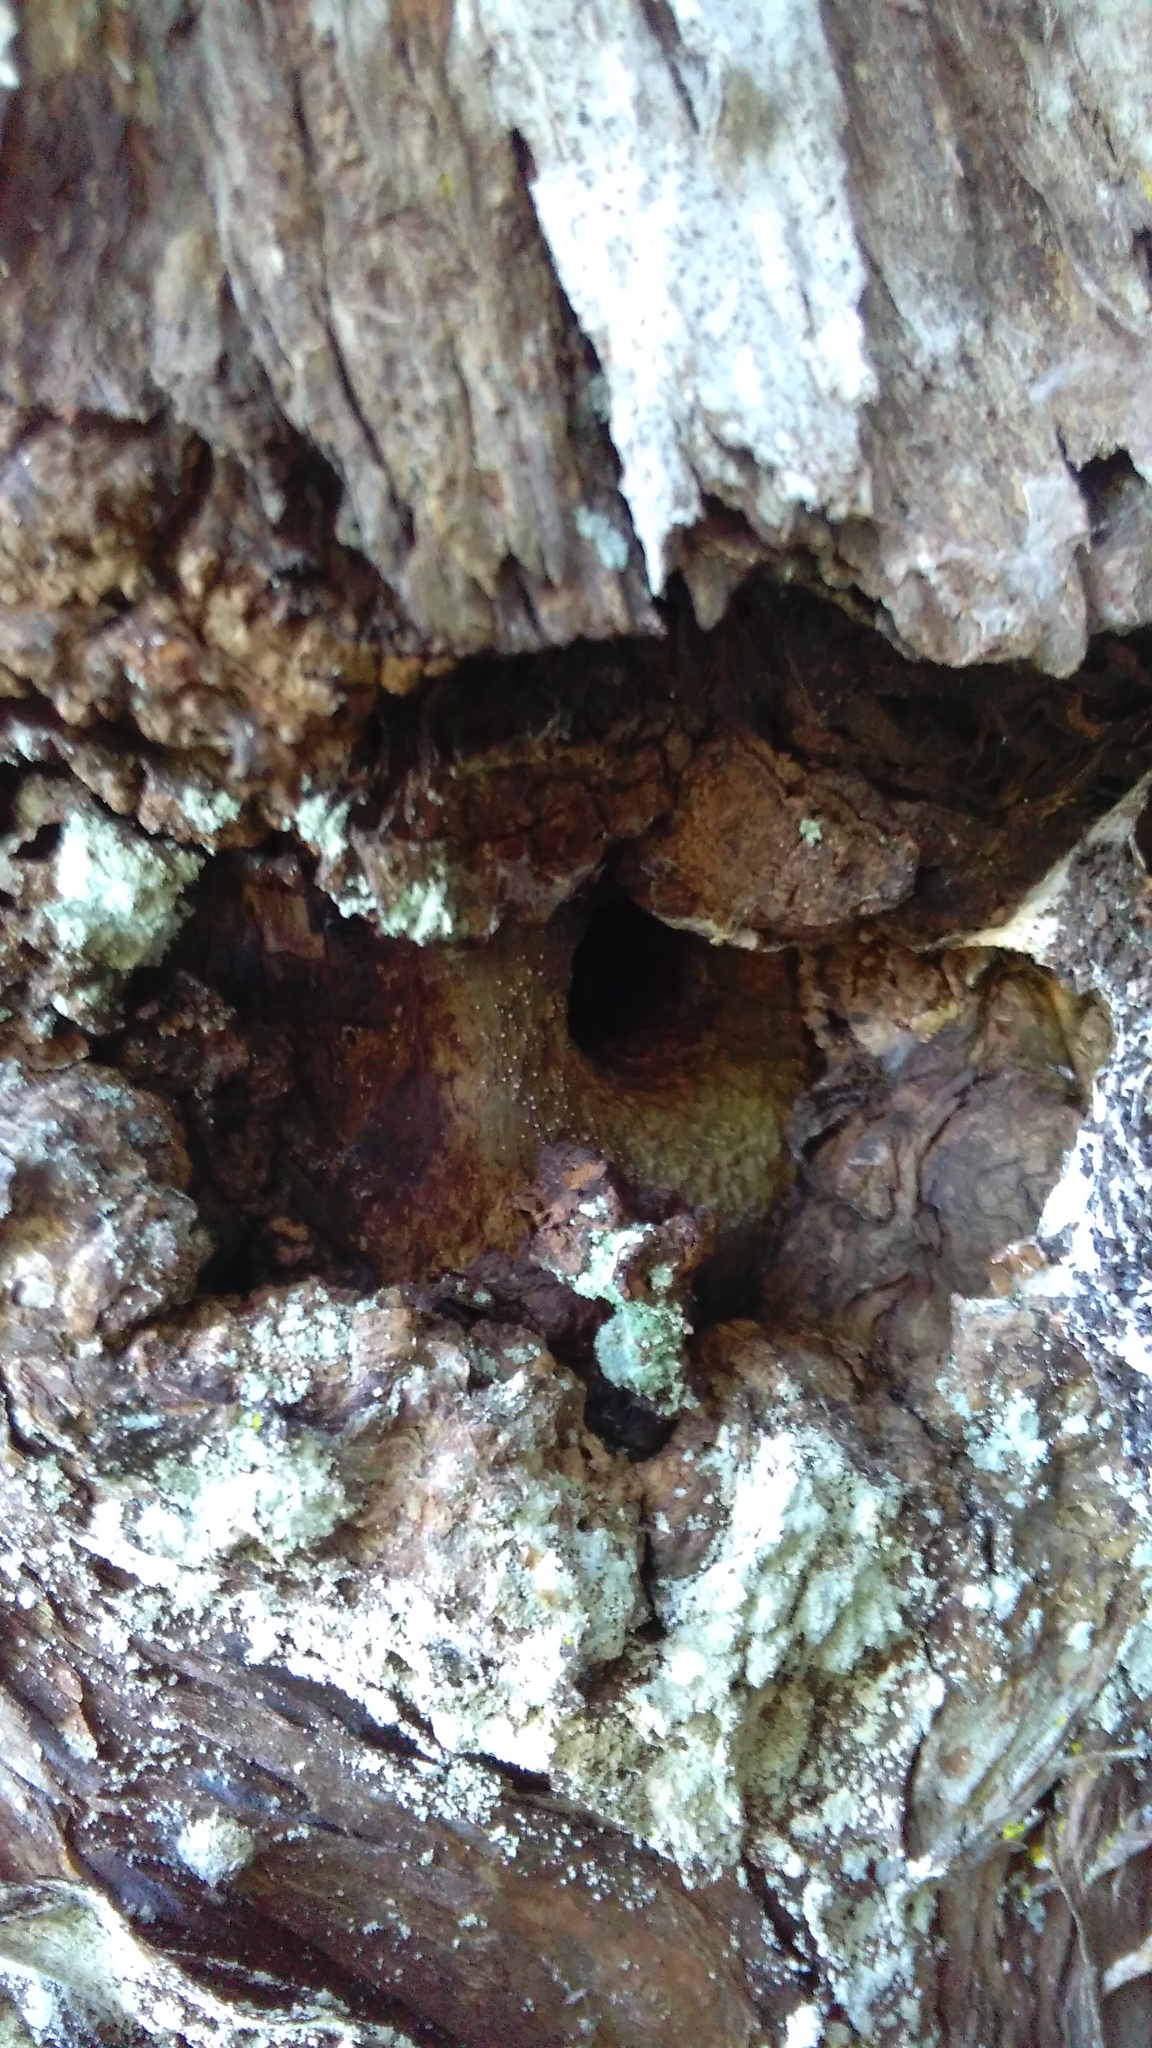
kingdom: Animalia
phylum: Arthropoda
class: Insecta
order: Lepidoptera
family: Hepialidae
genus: Aenetus
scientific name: Aenetus virescens
